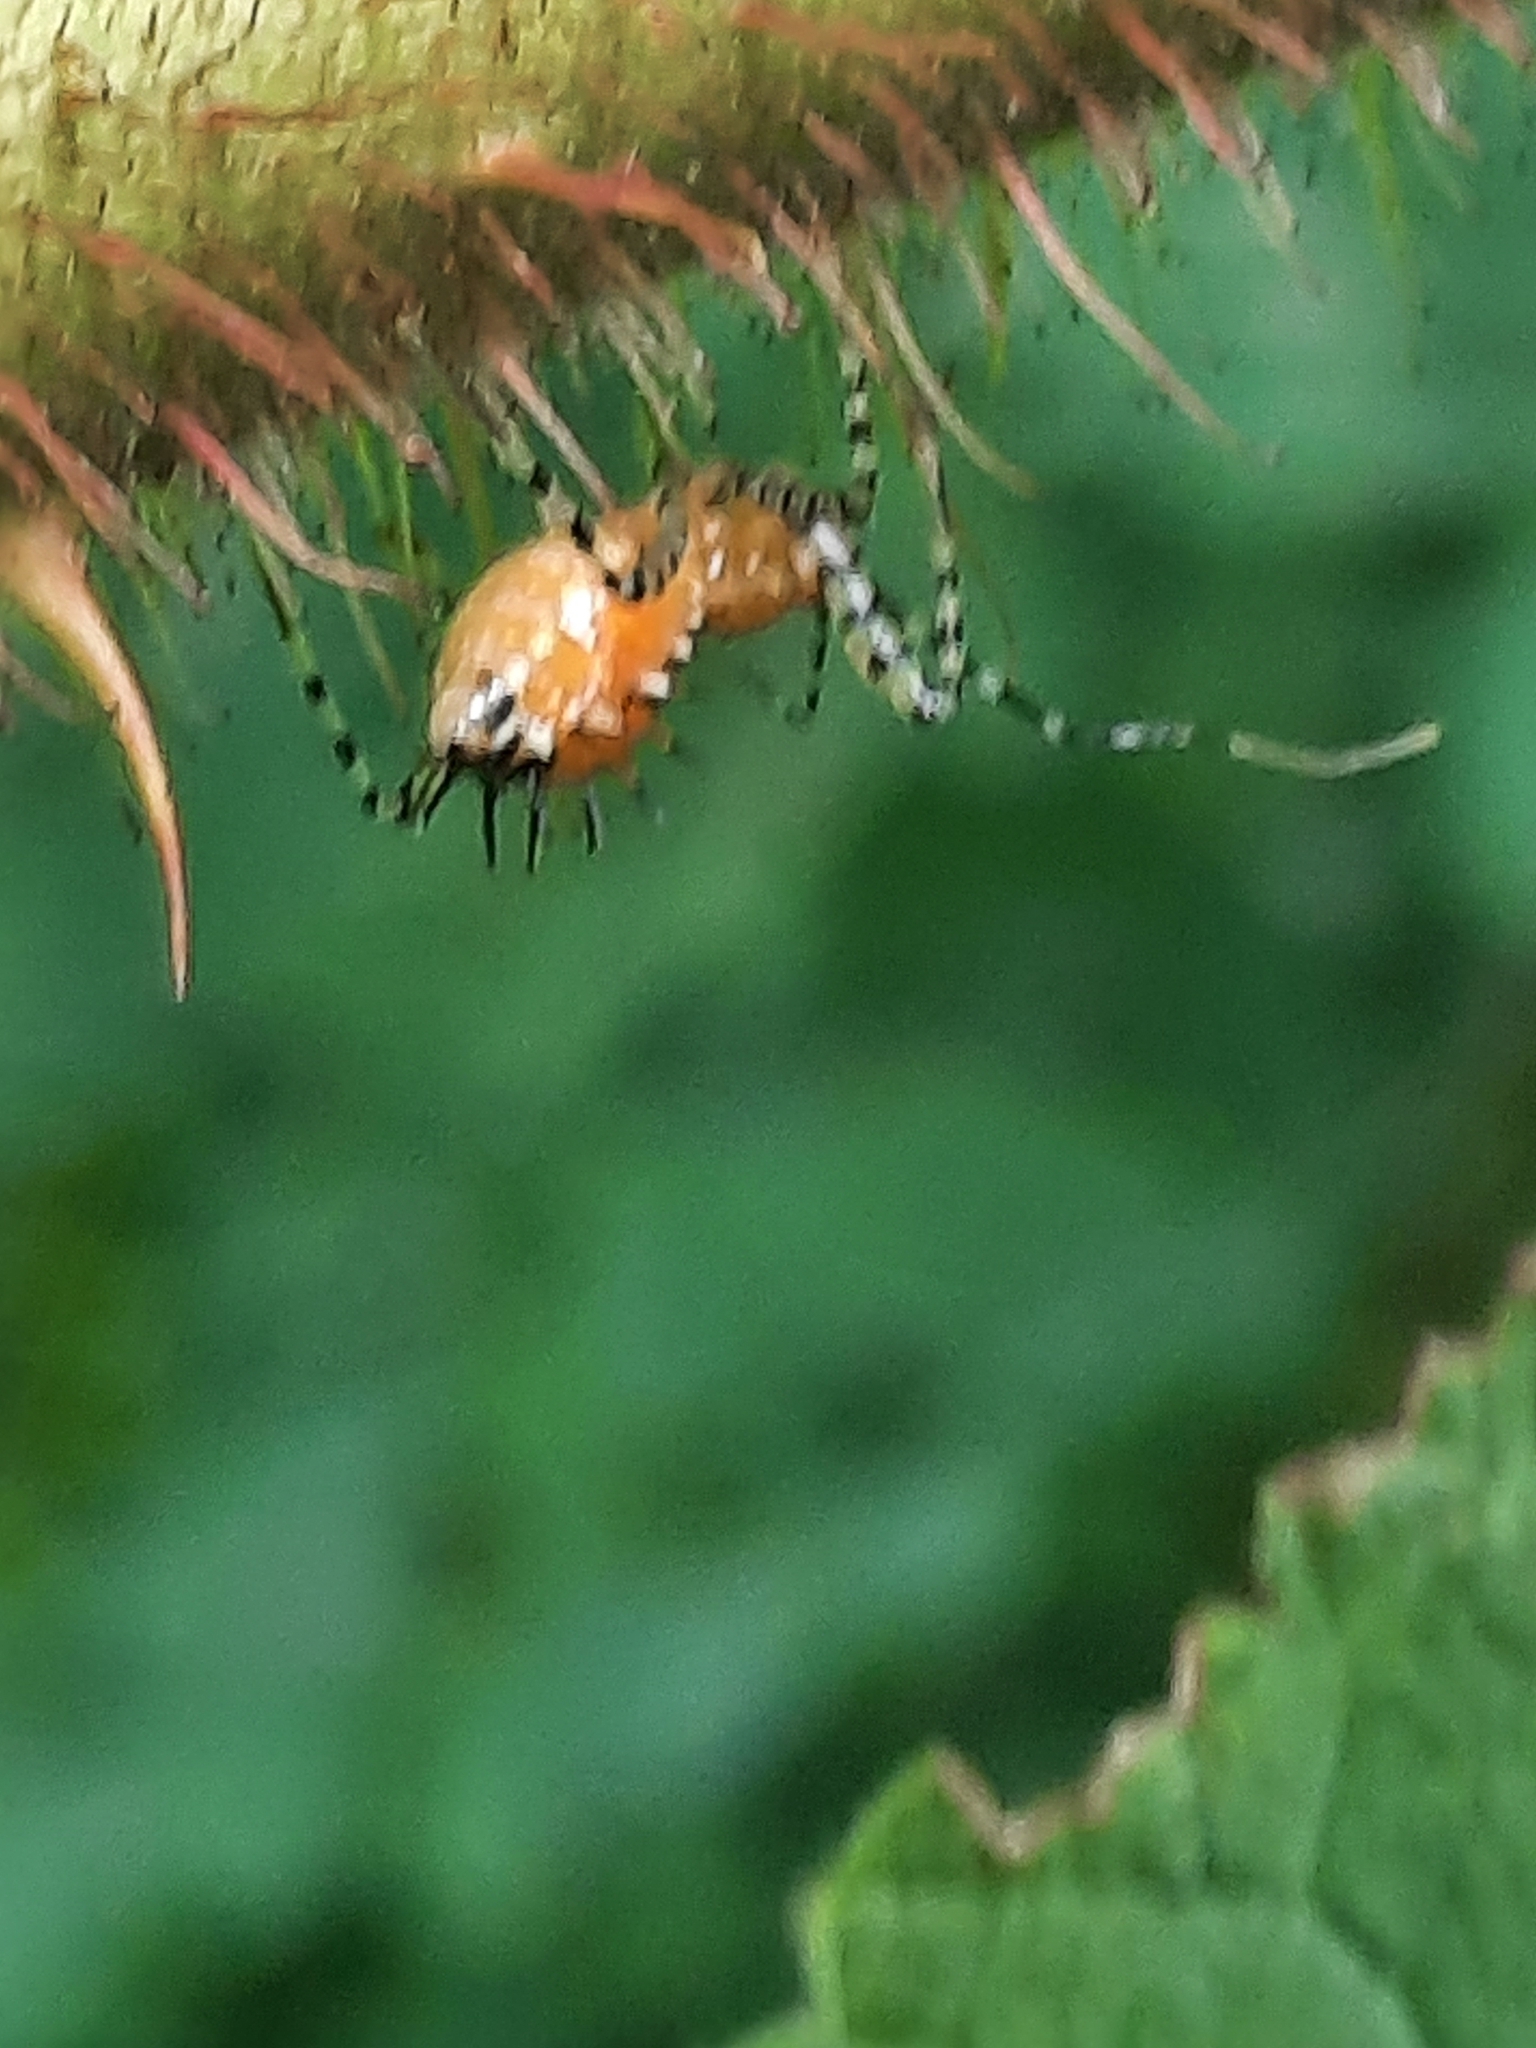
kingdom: Animalia
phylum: Arthropoda
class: Insecta
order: Hemiptera
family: Reduviidae
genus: Pselliopus
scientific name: Pselliopus cinctus
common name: Ringed assassin bug
